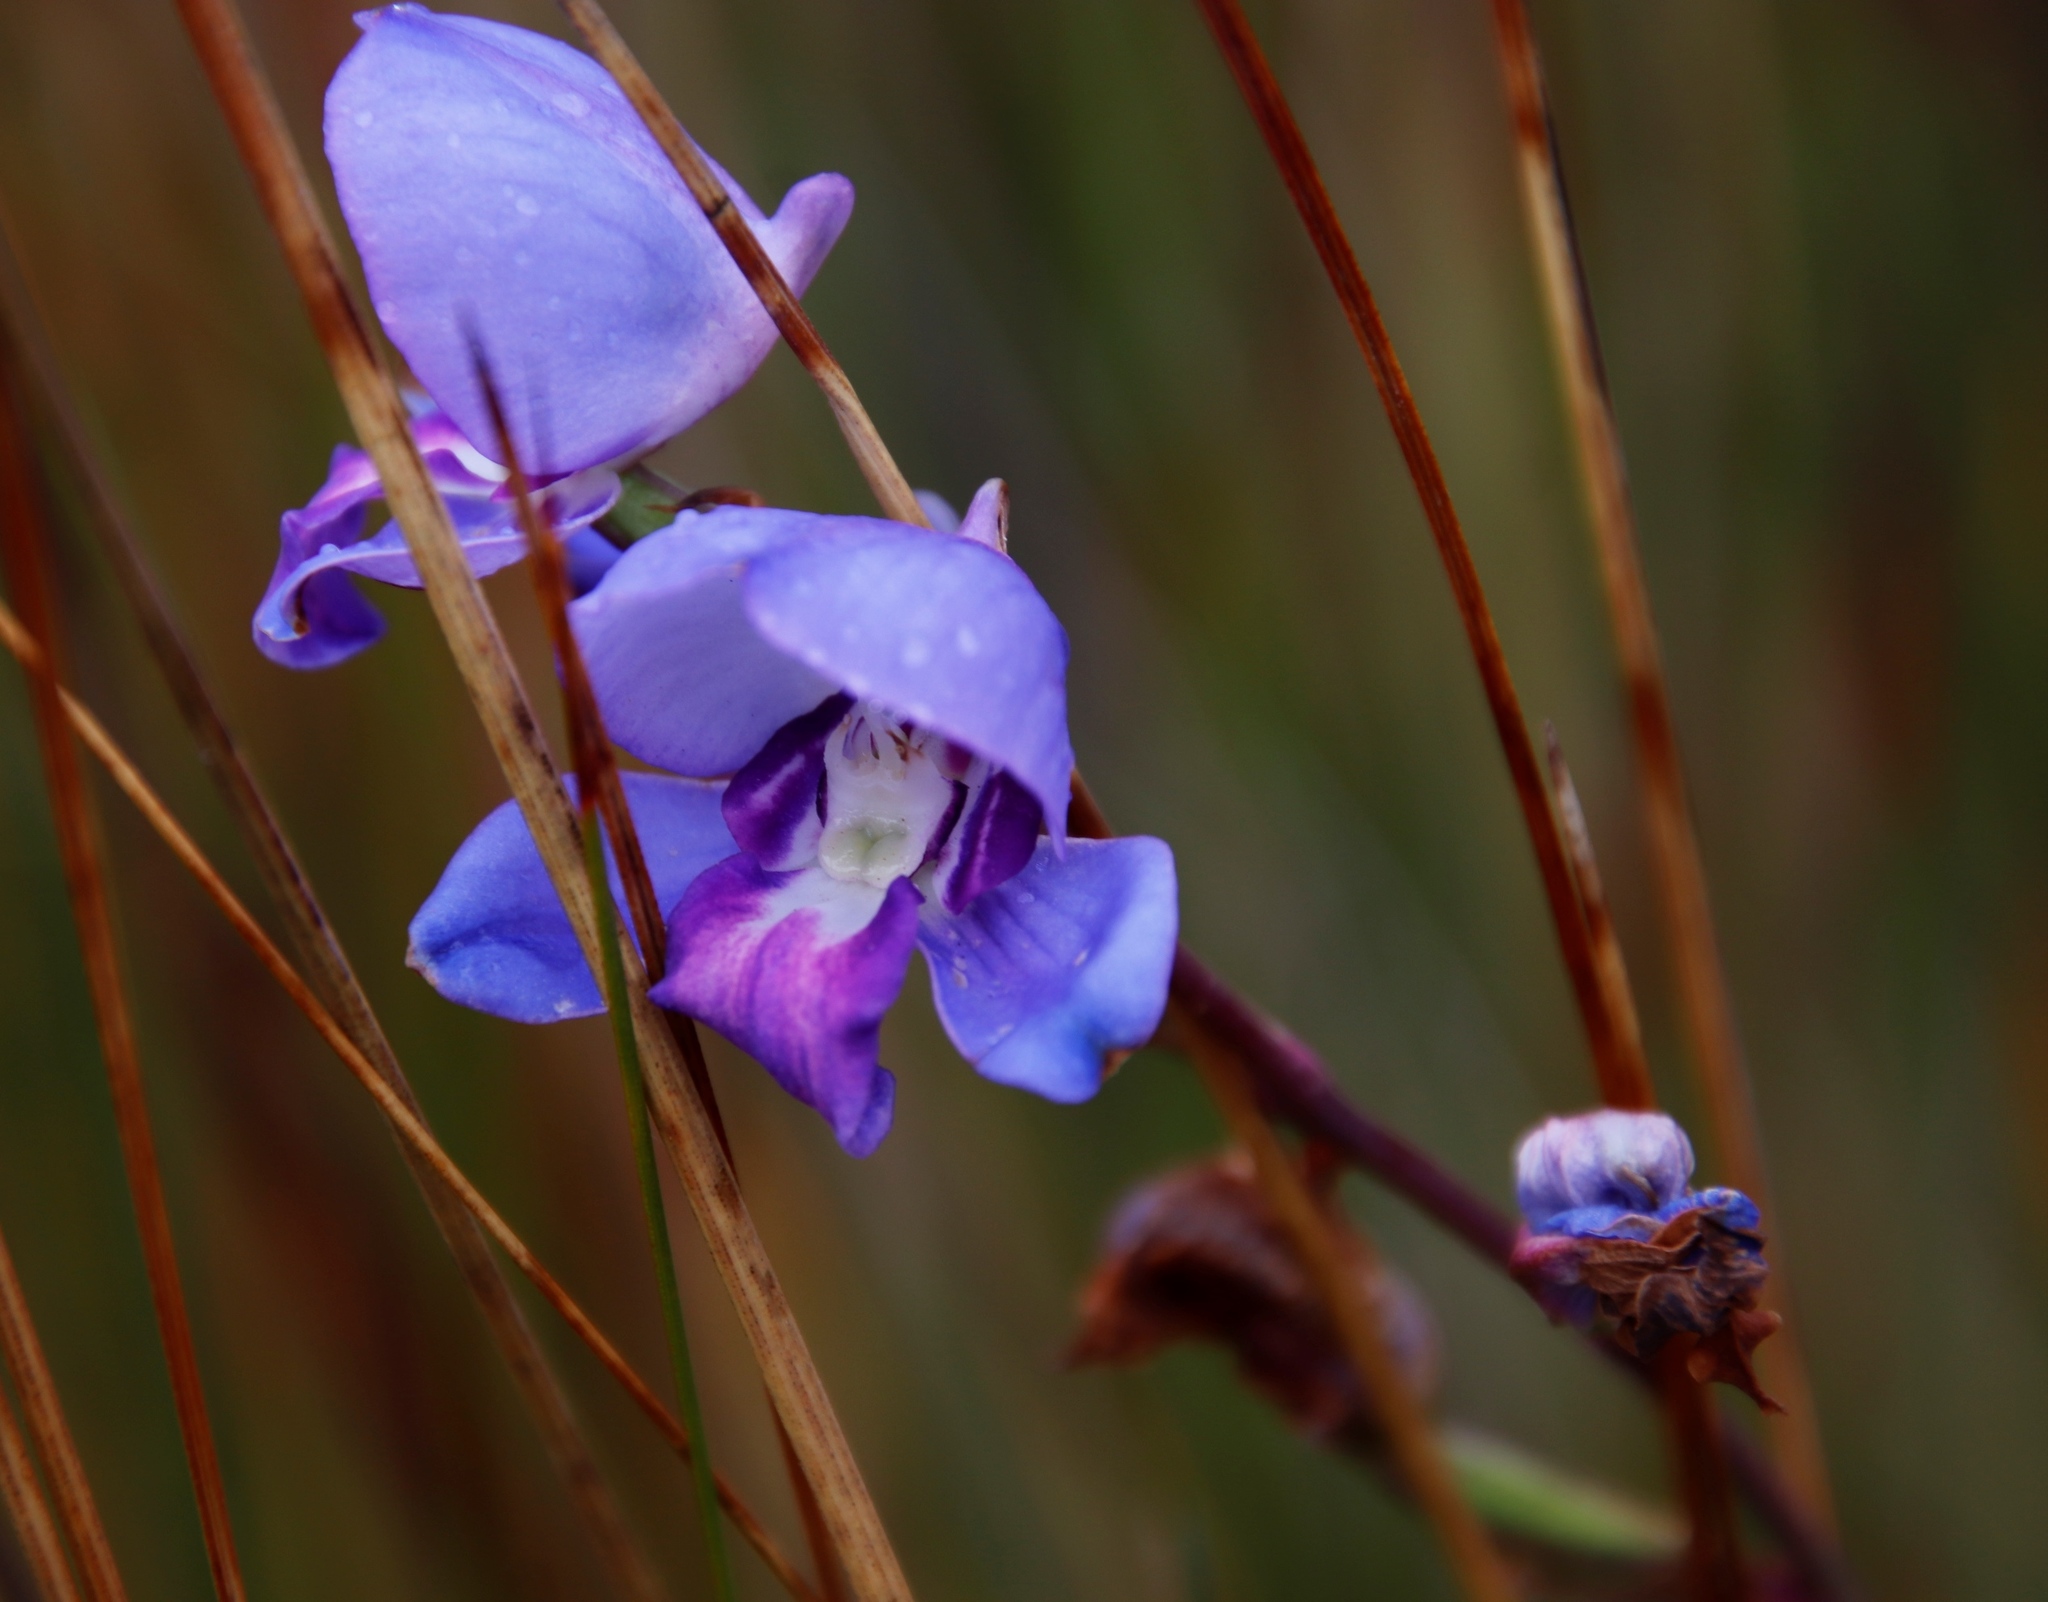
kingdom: Plantae
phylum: Tracheophyta
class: Liliopsida
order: Asparagales
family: Orchidaceae
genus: Disa
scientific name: Disa graminifolia
